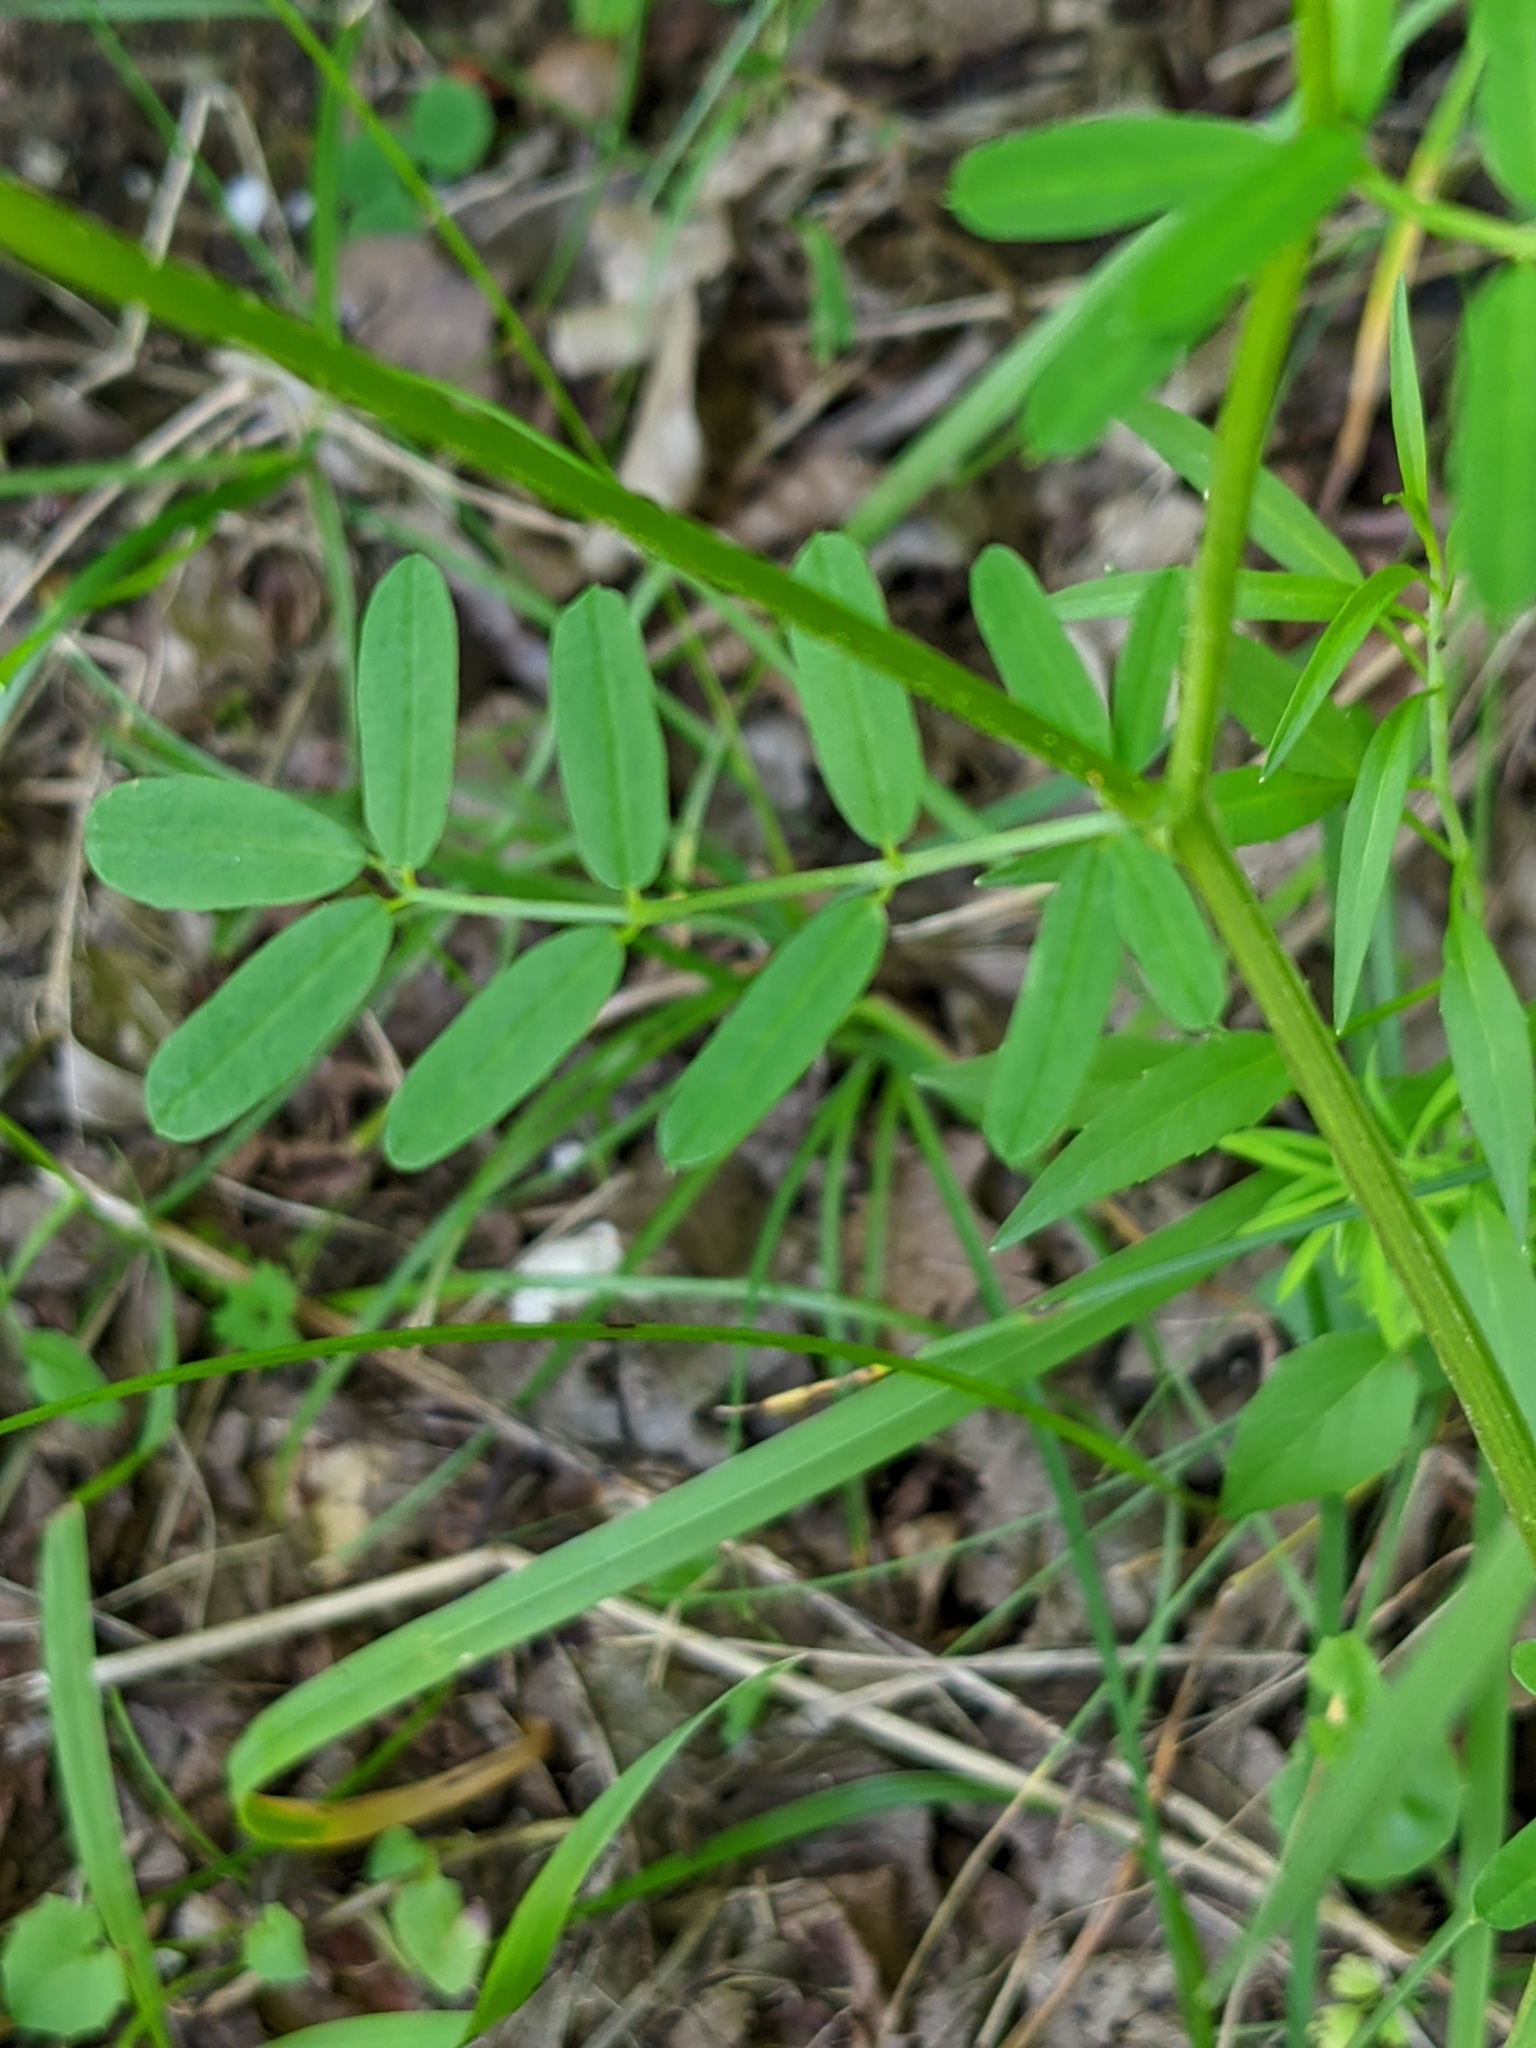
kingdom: Plantae
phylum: Tracheophyta
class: Magnoliopsida
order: Fabales
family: Fabaceae
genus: Coronilla
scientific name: Coronilla varia
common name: Crownvetch
